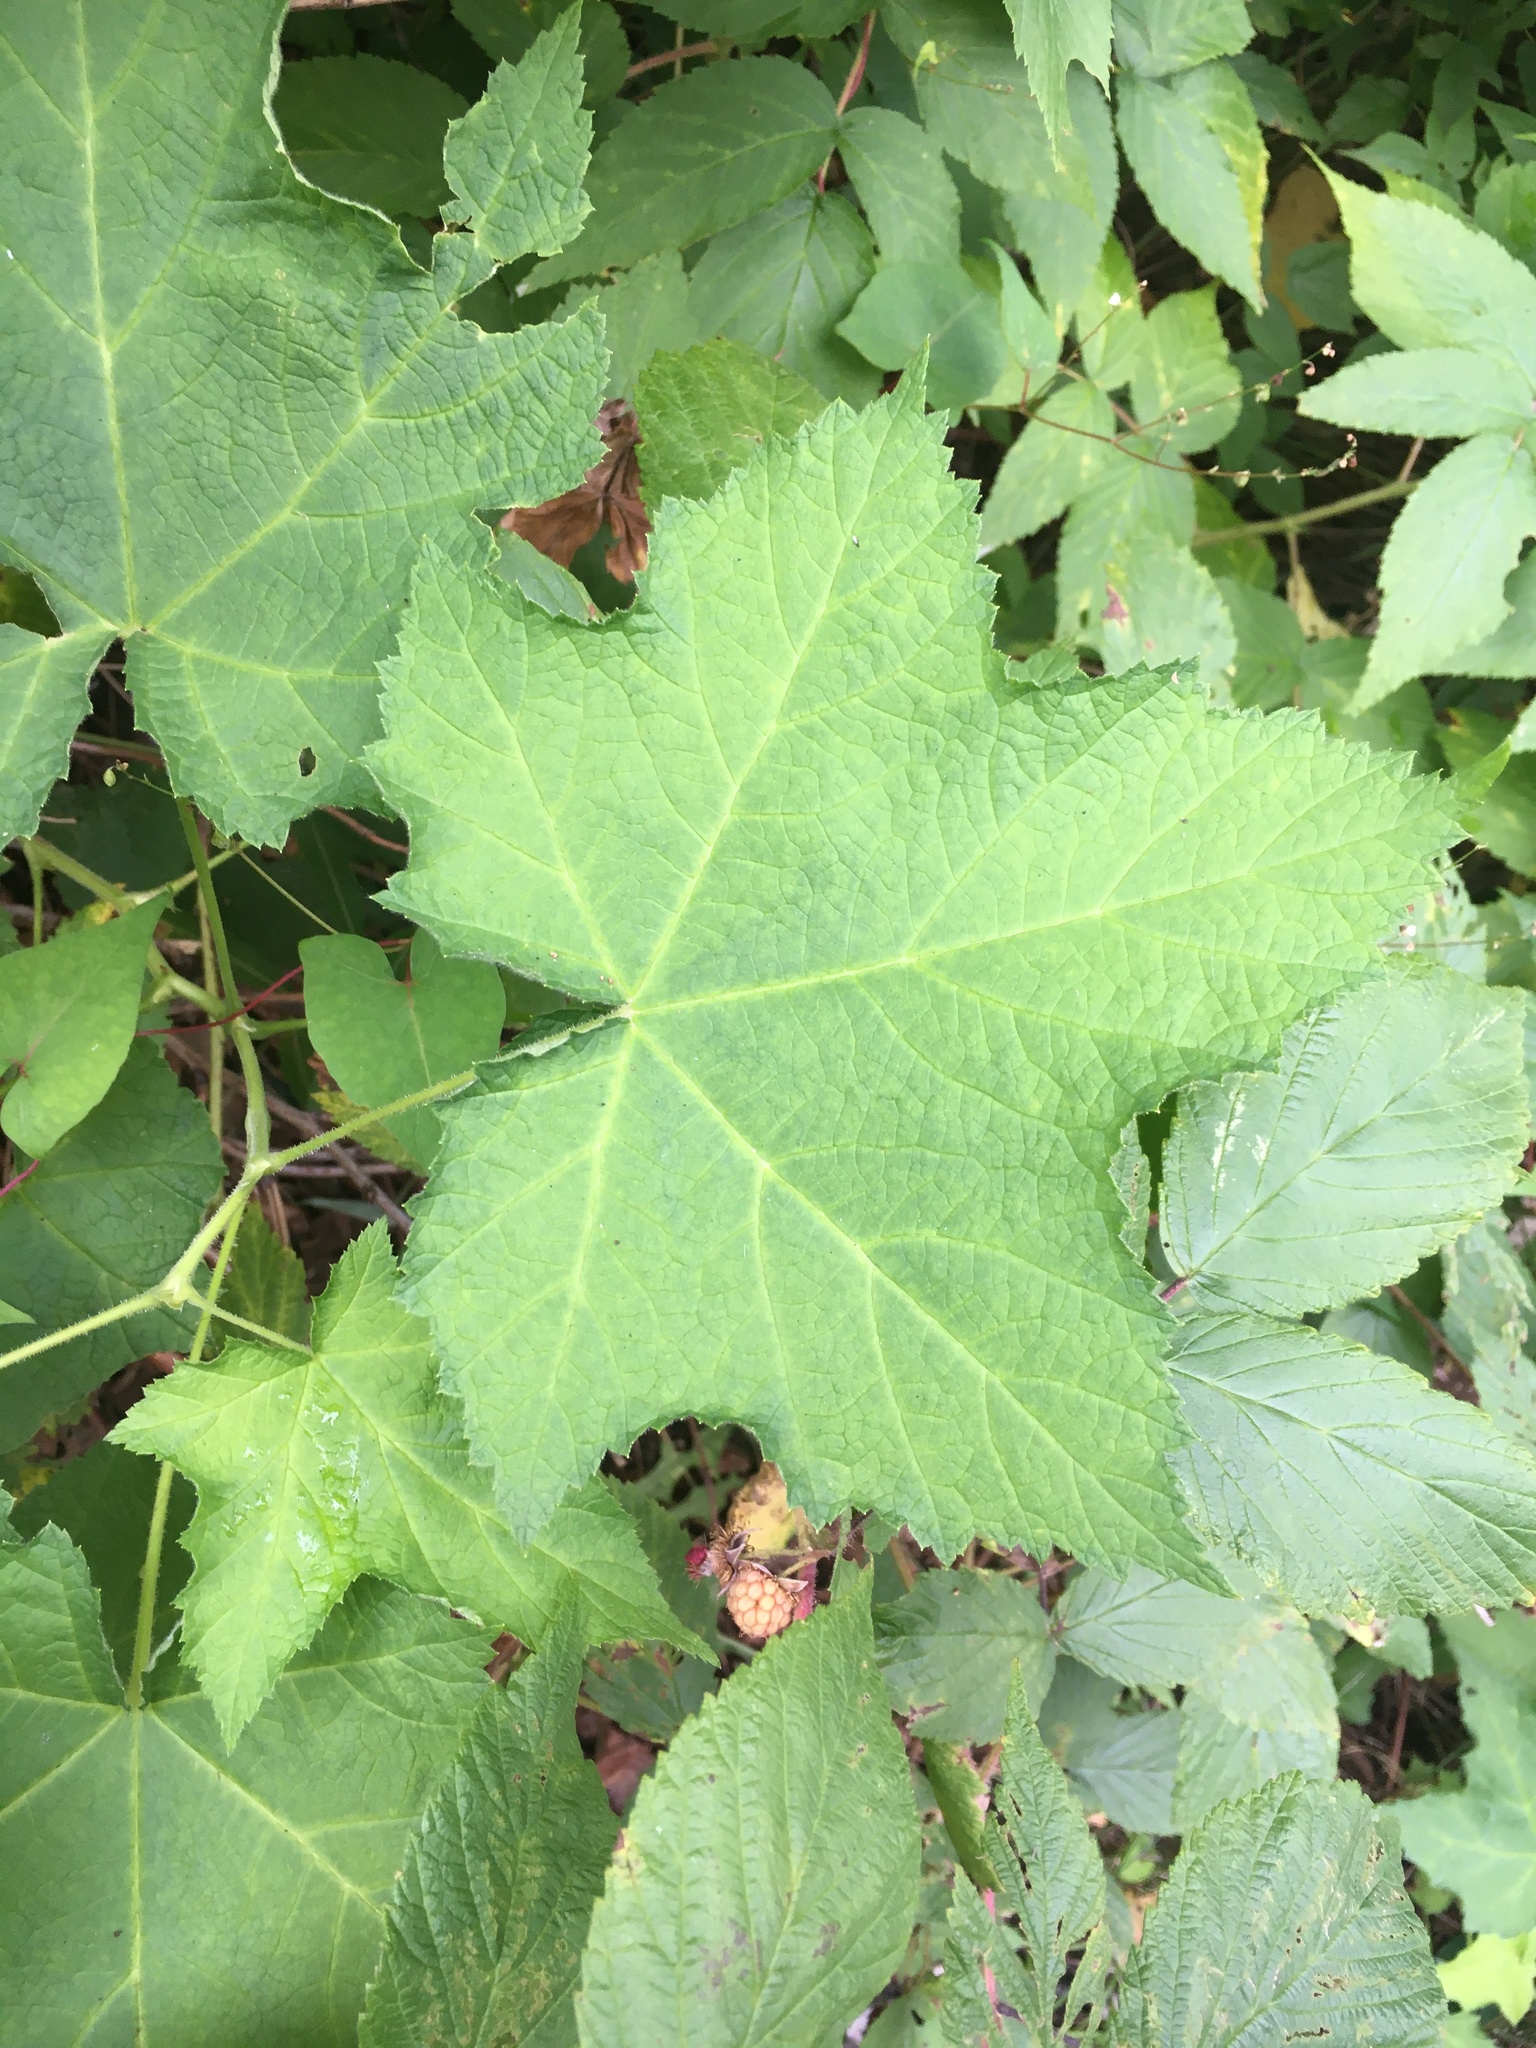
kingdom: Plantae
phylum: Tracheophyta
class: Magnoliopsida
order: Rosales
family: Rosaceae
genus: Rubus
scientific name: Rubus parviflorus
